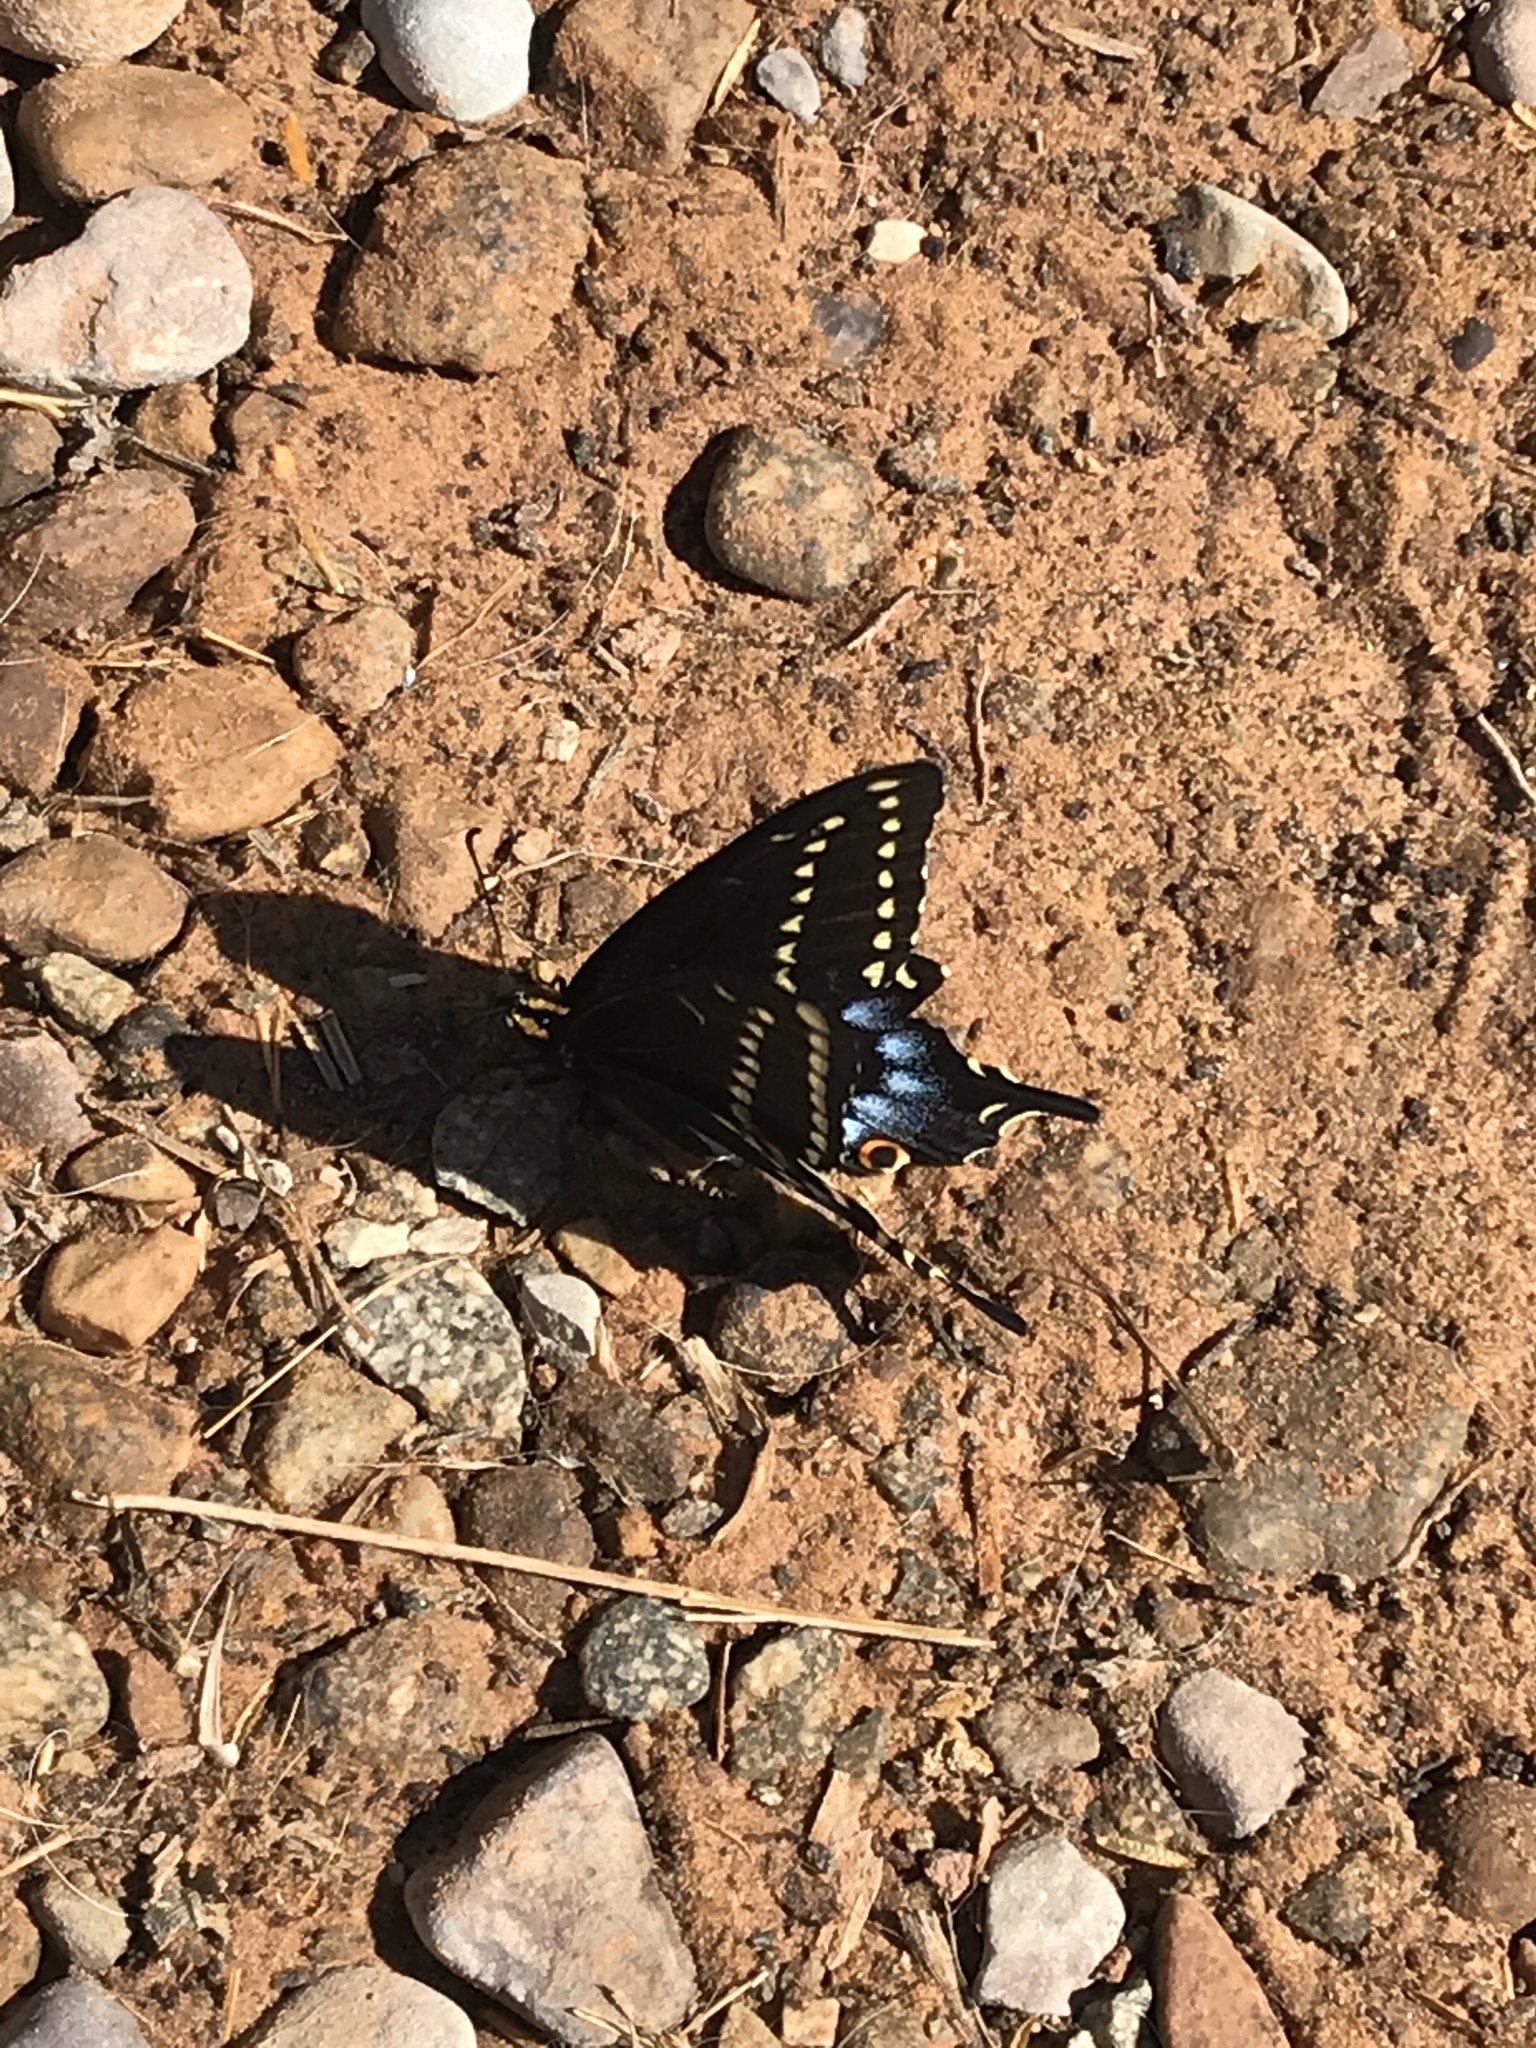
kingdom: Animalia
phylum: Arthropoda
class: Insecta
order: Lepidoptera
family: Papilionidae
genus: Papilio
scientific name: Papilio indra
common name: Cliff swallowtail
